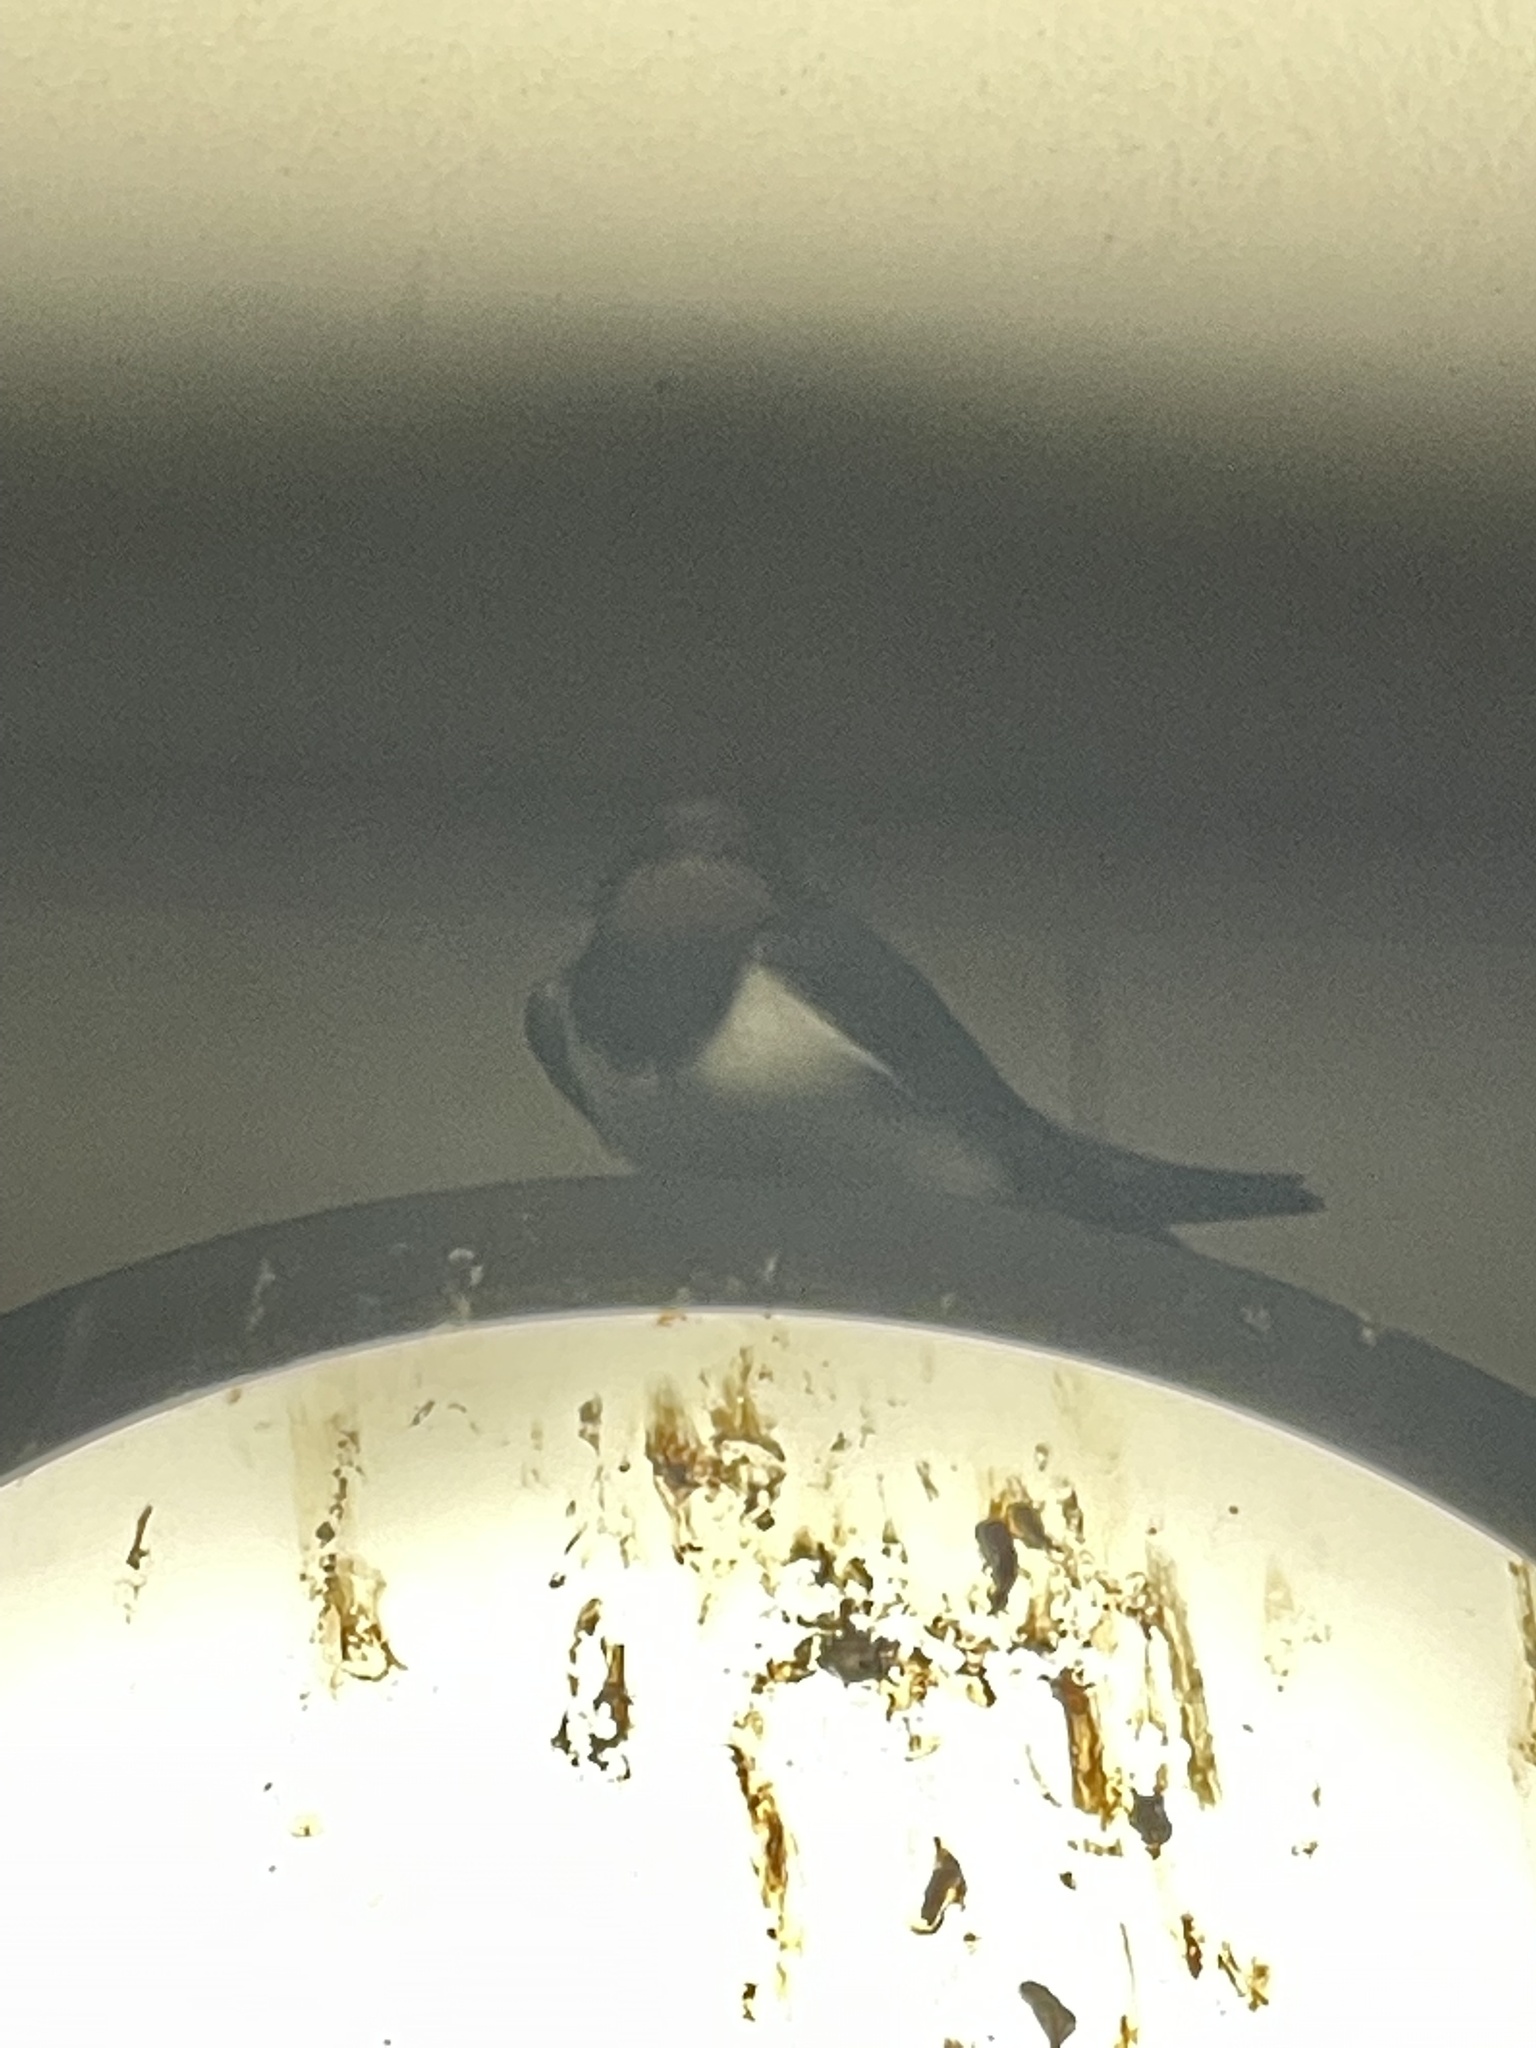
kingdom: Animalia
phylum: Chordata
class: Aves
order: Passeriformes
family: Hirundinidae
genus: Hirundo
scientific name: Hirundo rustica
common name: Barn swallow
